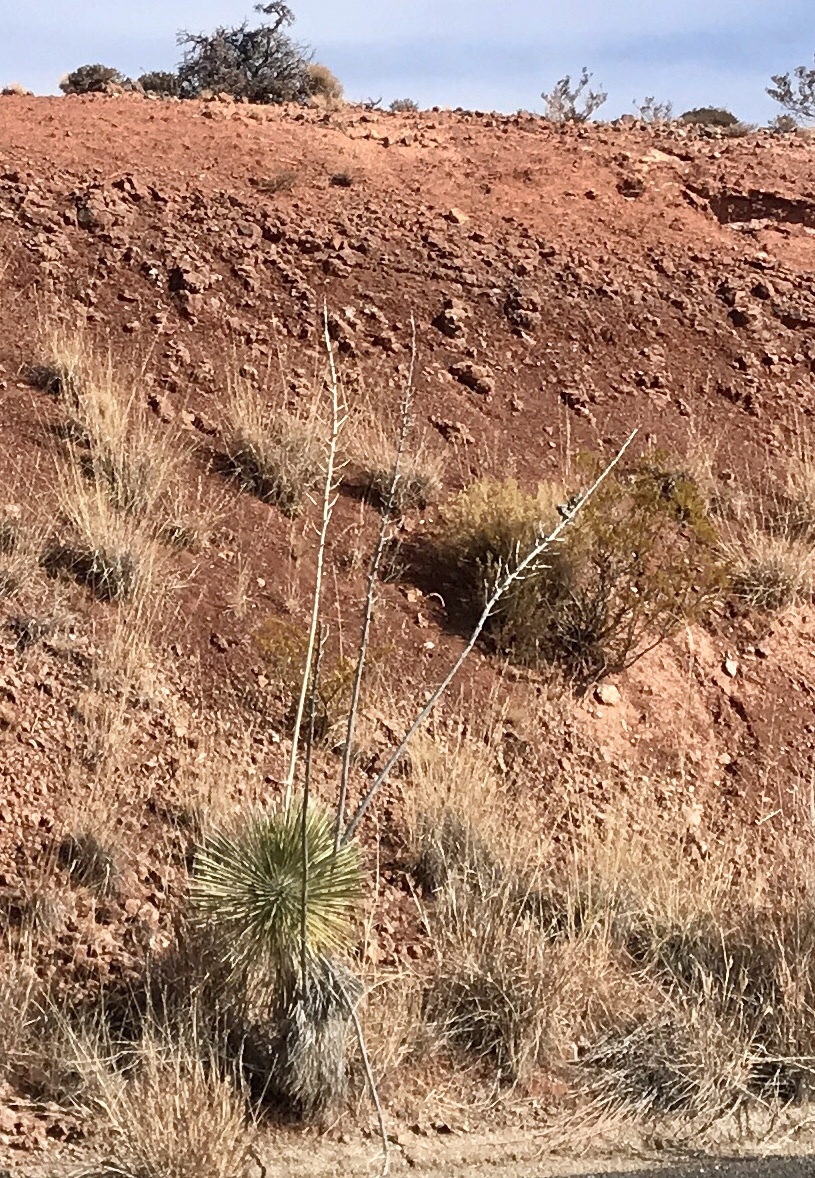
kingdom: Plantae
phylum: Tracheophyta
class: Liliopsida
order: Asparagales
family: Asparagaceae
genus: Yucca
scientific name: Yucca elata
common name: Palmella
